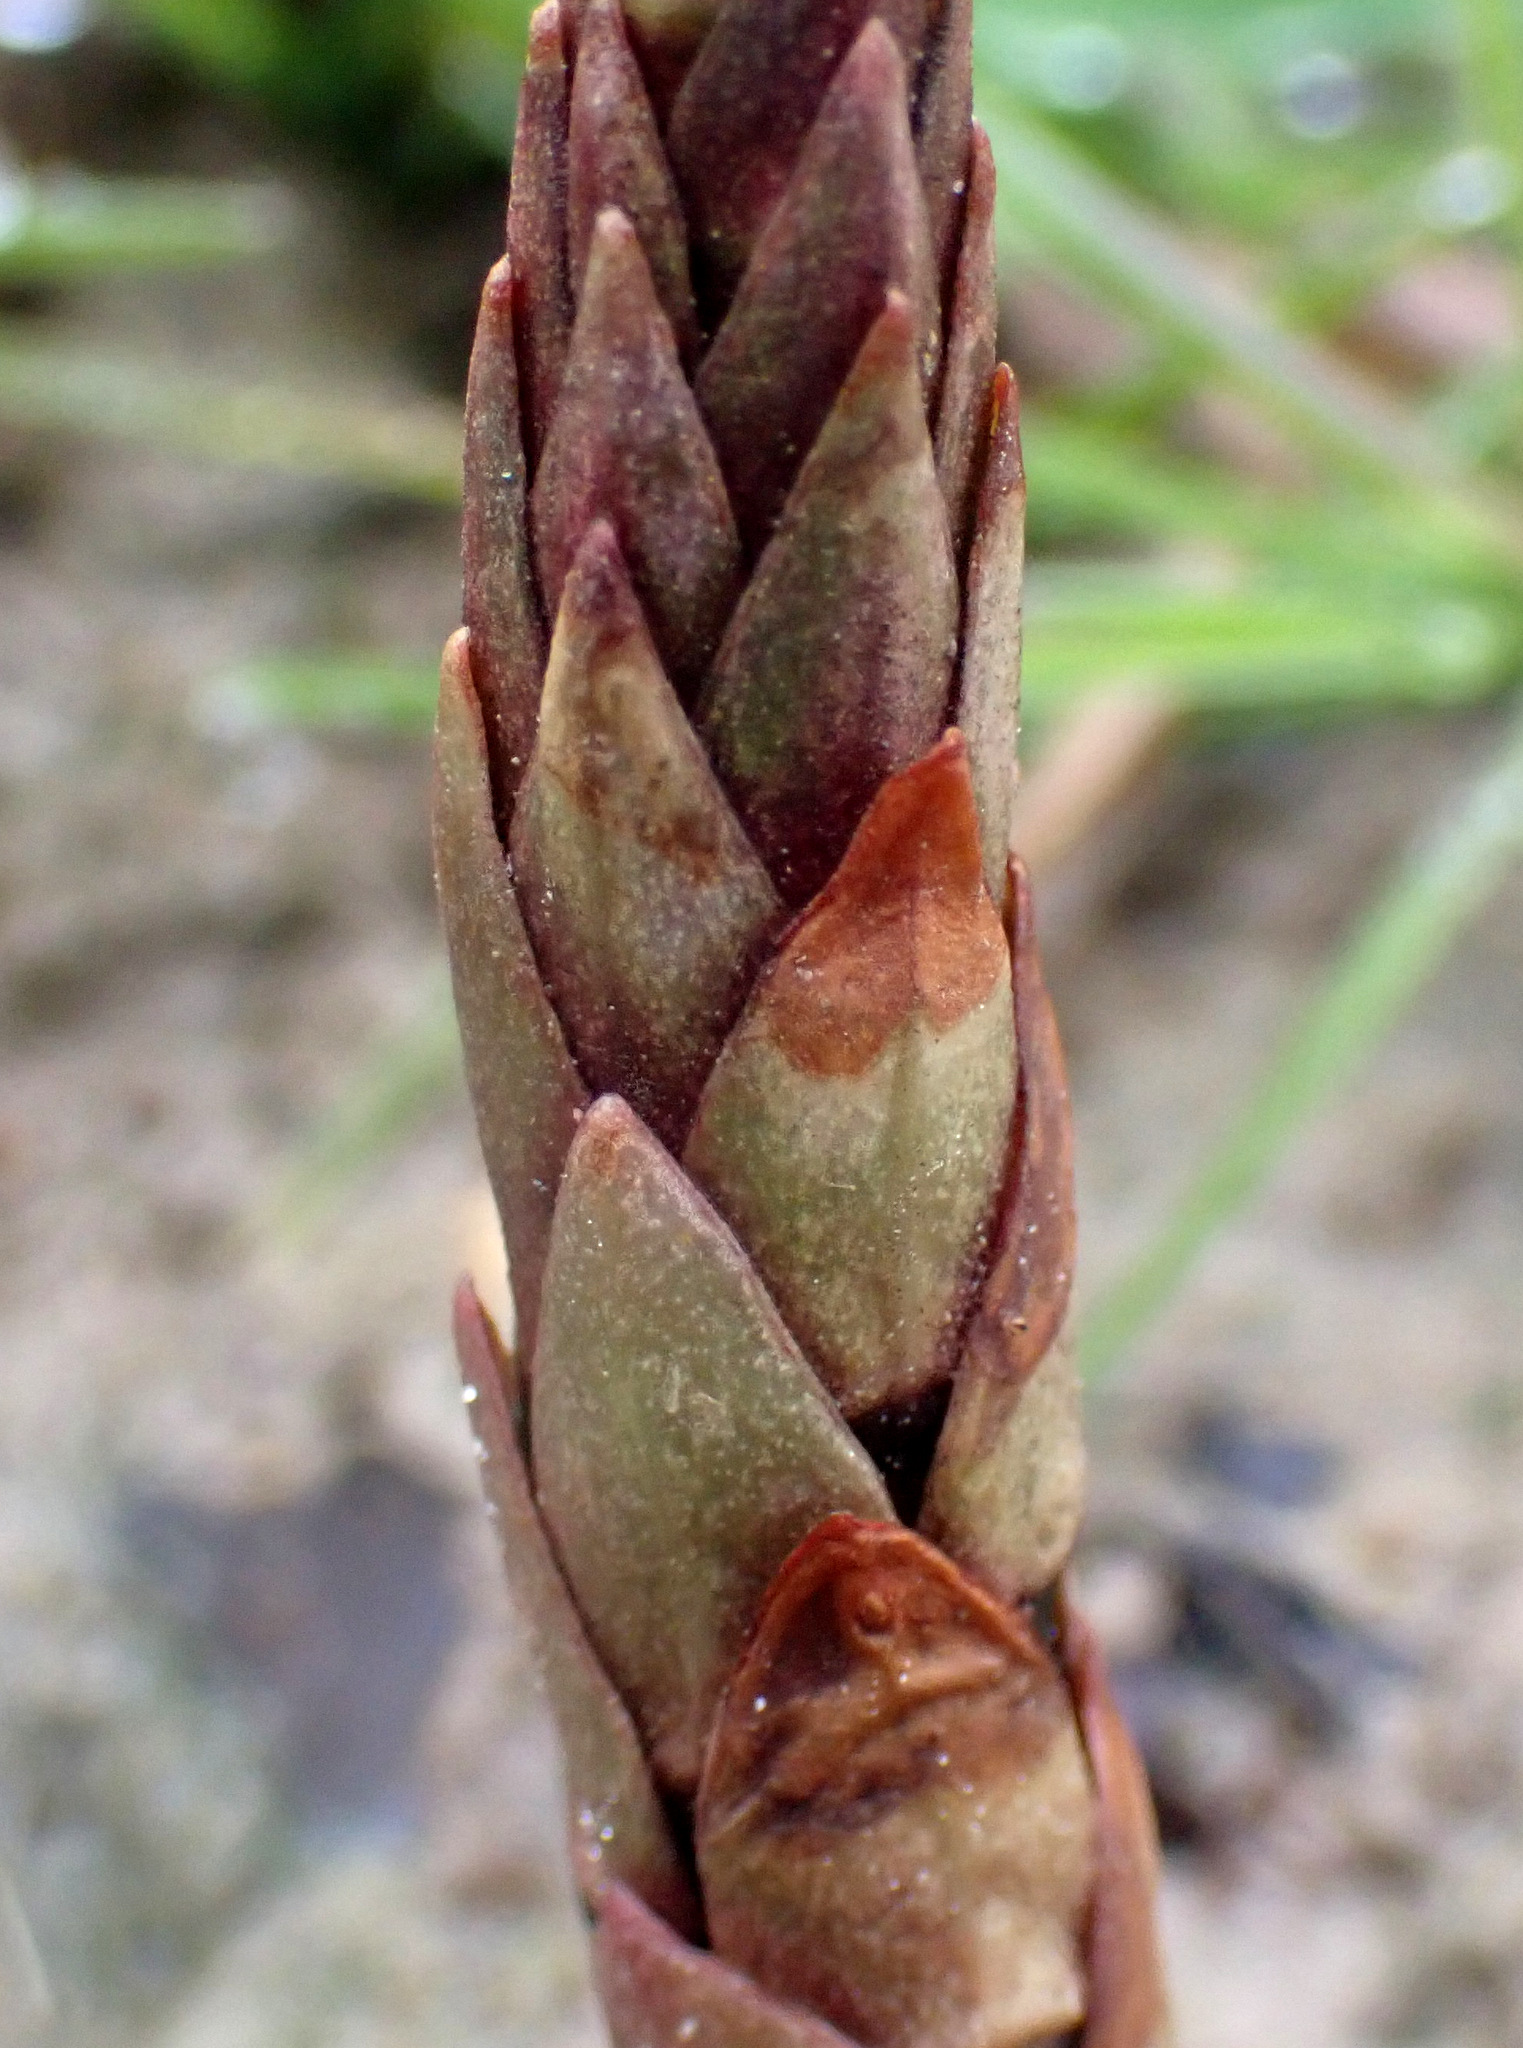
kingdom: Plantae
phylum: Tracheophyta
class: Magnoliopsida
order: Ericales
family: Primulaceae
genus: Lysimachia
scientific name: Lysimachia vulgaris
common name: Yellow loosestrife
